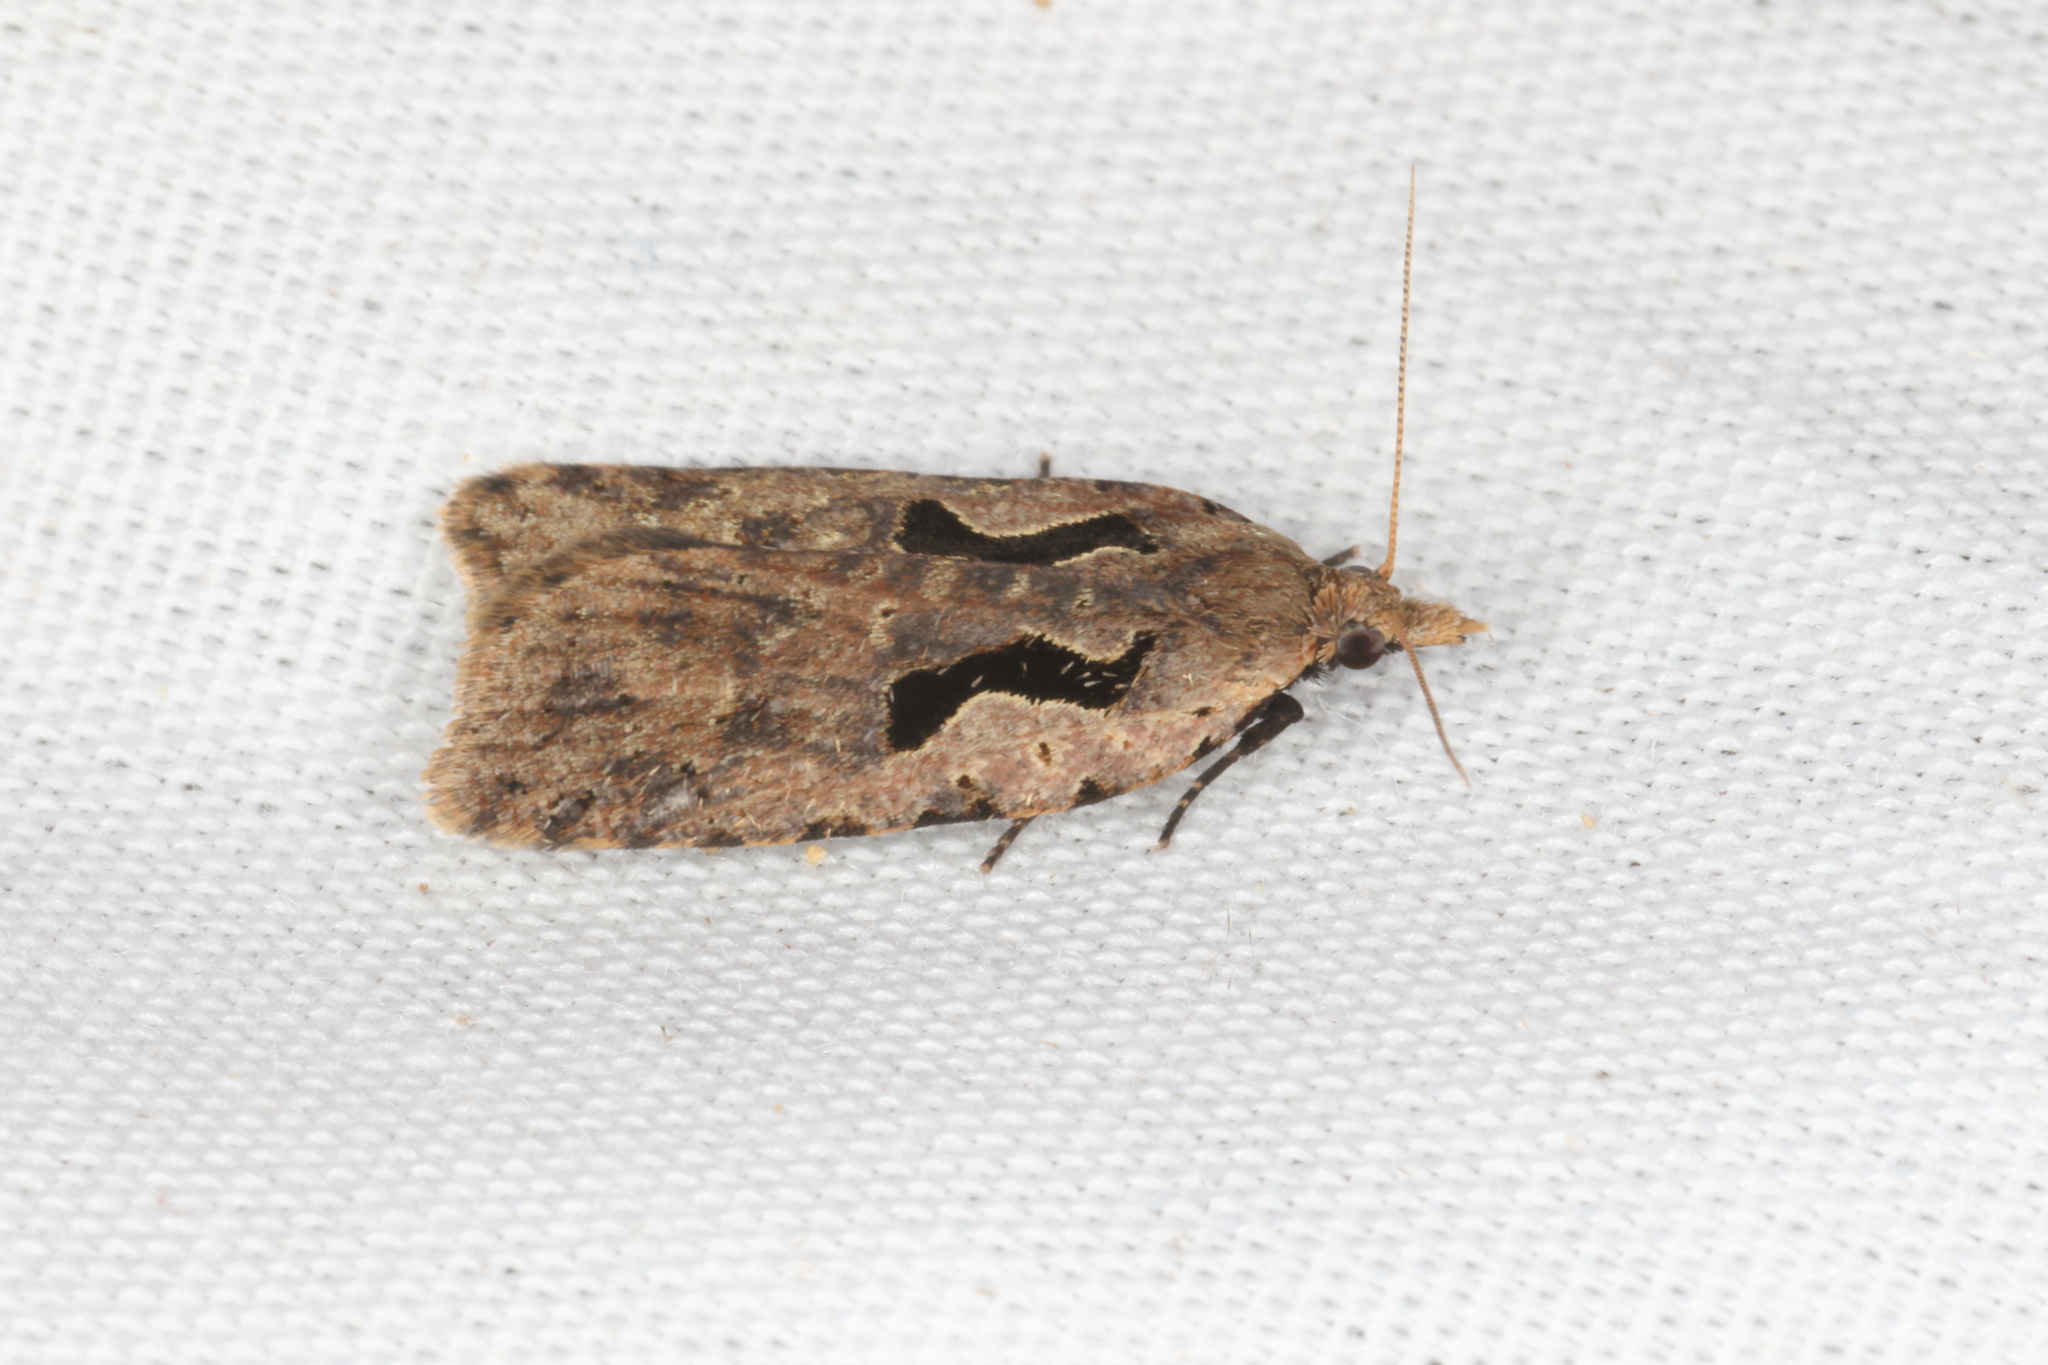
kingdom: Animalia
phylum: Arthropoda
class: Insecta
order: Lepidoptera
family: Tortricidae
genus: Cnephasia
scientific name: Cnephasia jactatana
